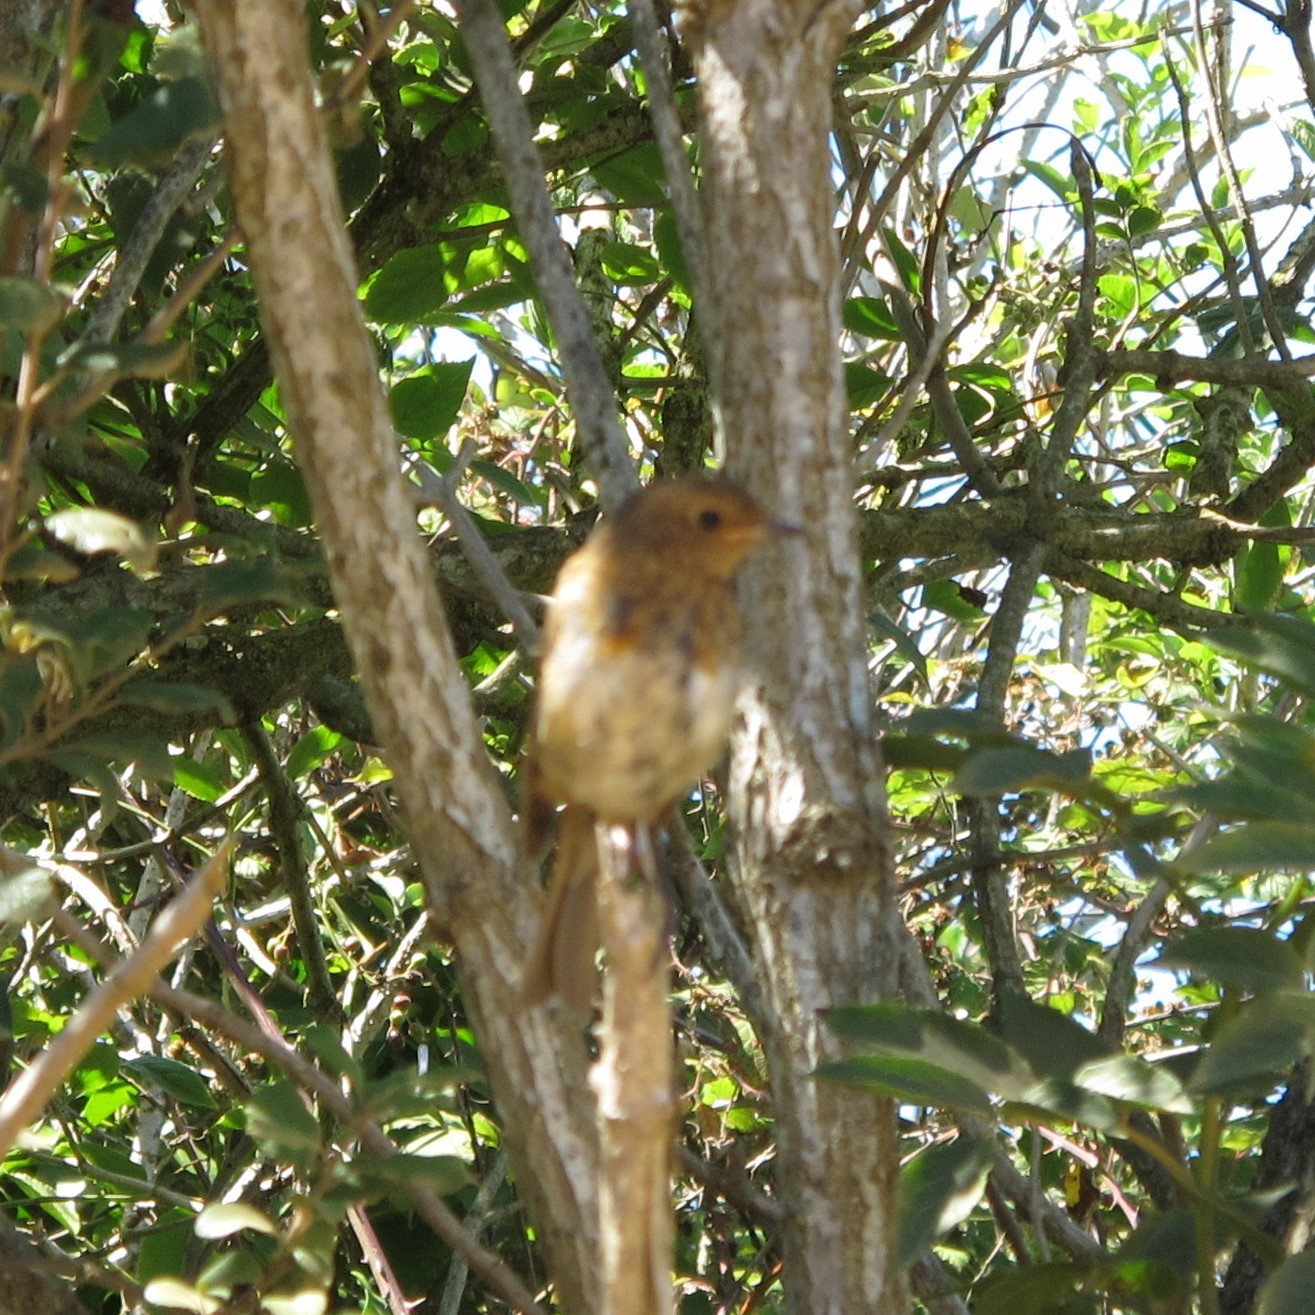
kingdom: Animalia
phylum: Chordata
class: Aves
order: Passeriformes
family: Muscicapidae
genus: Erithacus
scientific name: Erithacus rubecula
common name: European robin
